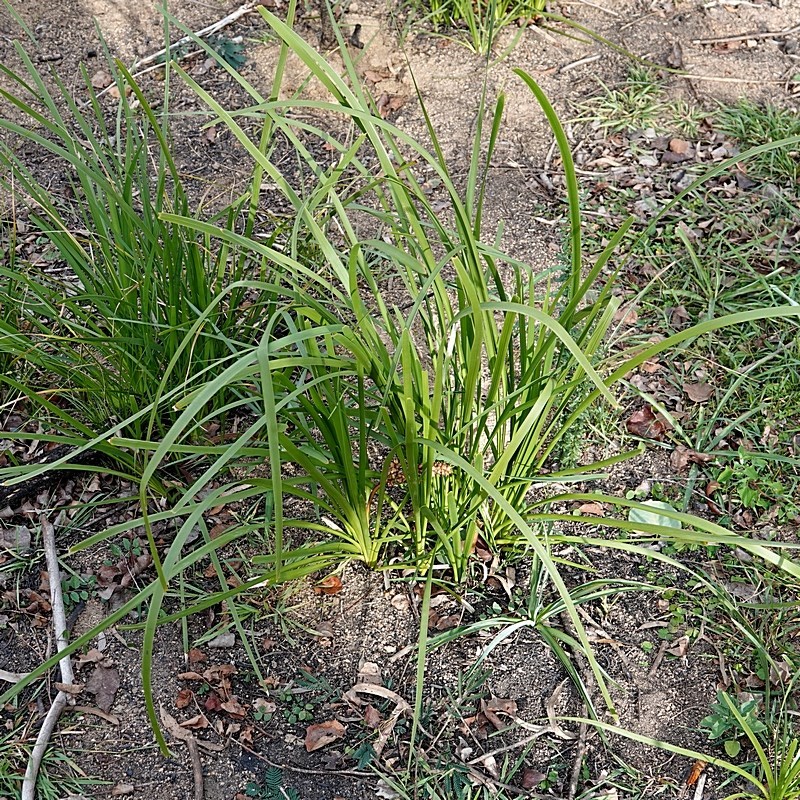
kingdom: Plantae
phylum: Tracheophyta
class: Liliopsida
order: Asparagales
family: Asparagaceae
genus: Lomandra
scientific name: Lomandra longifolia
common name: Longleaf mat-rush
